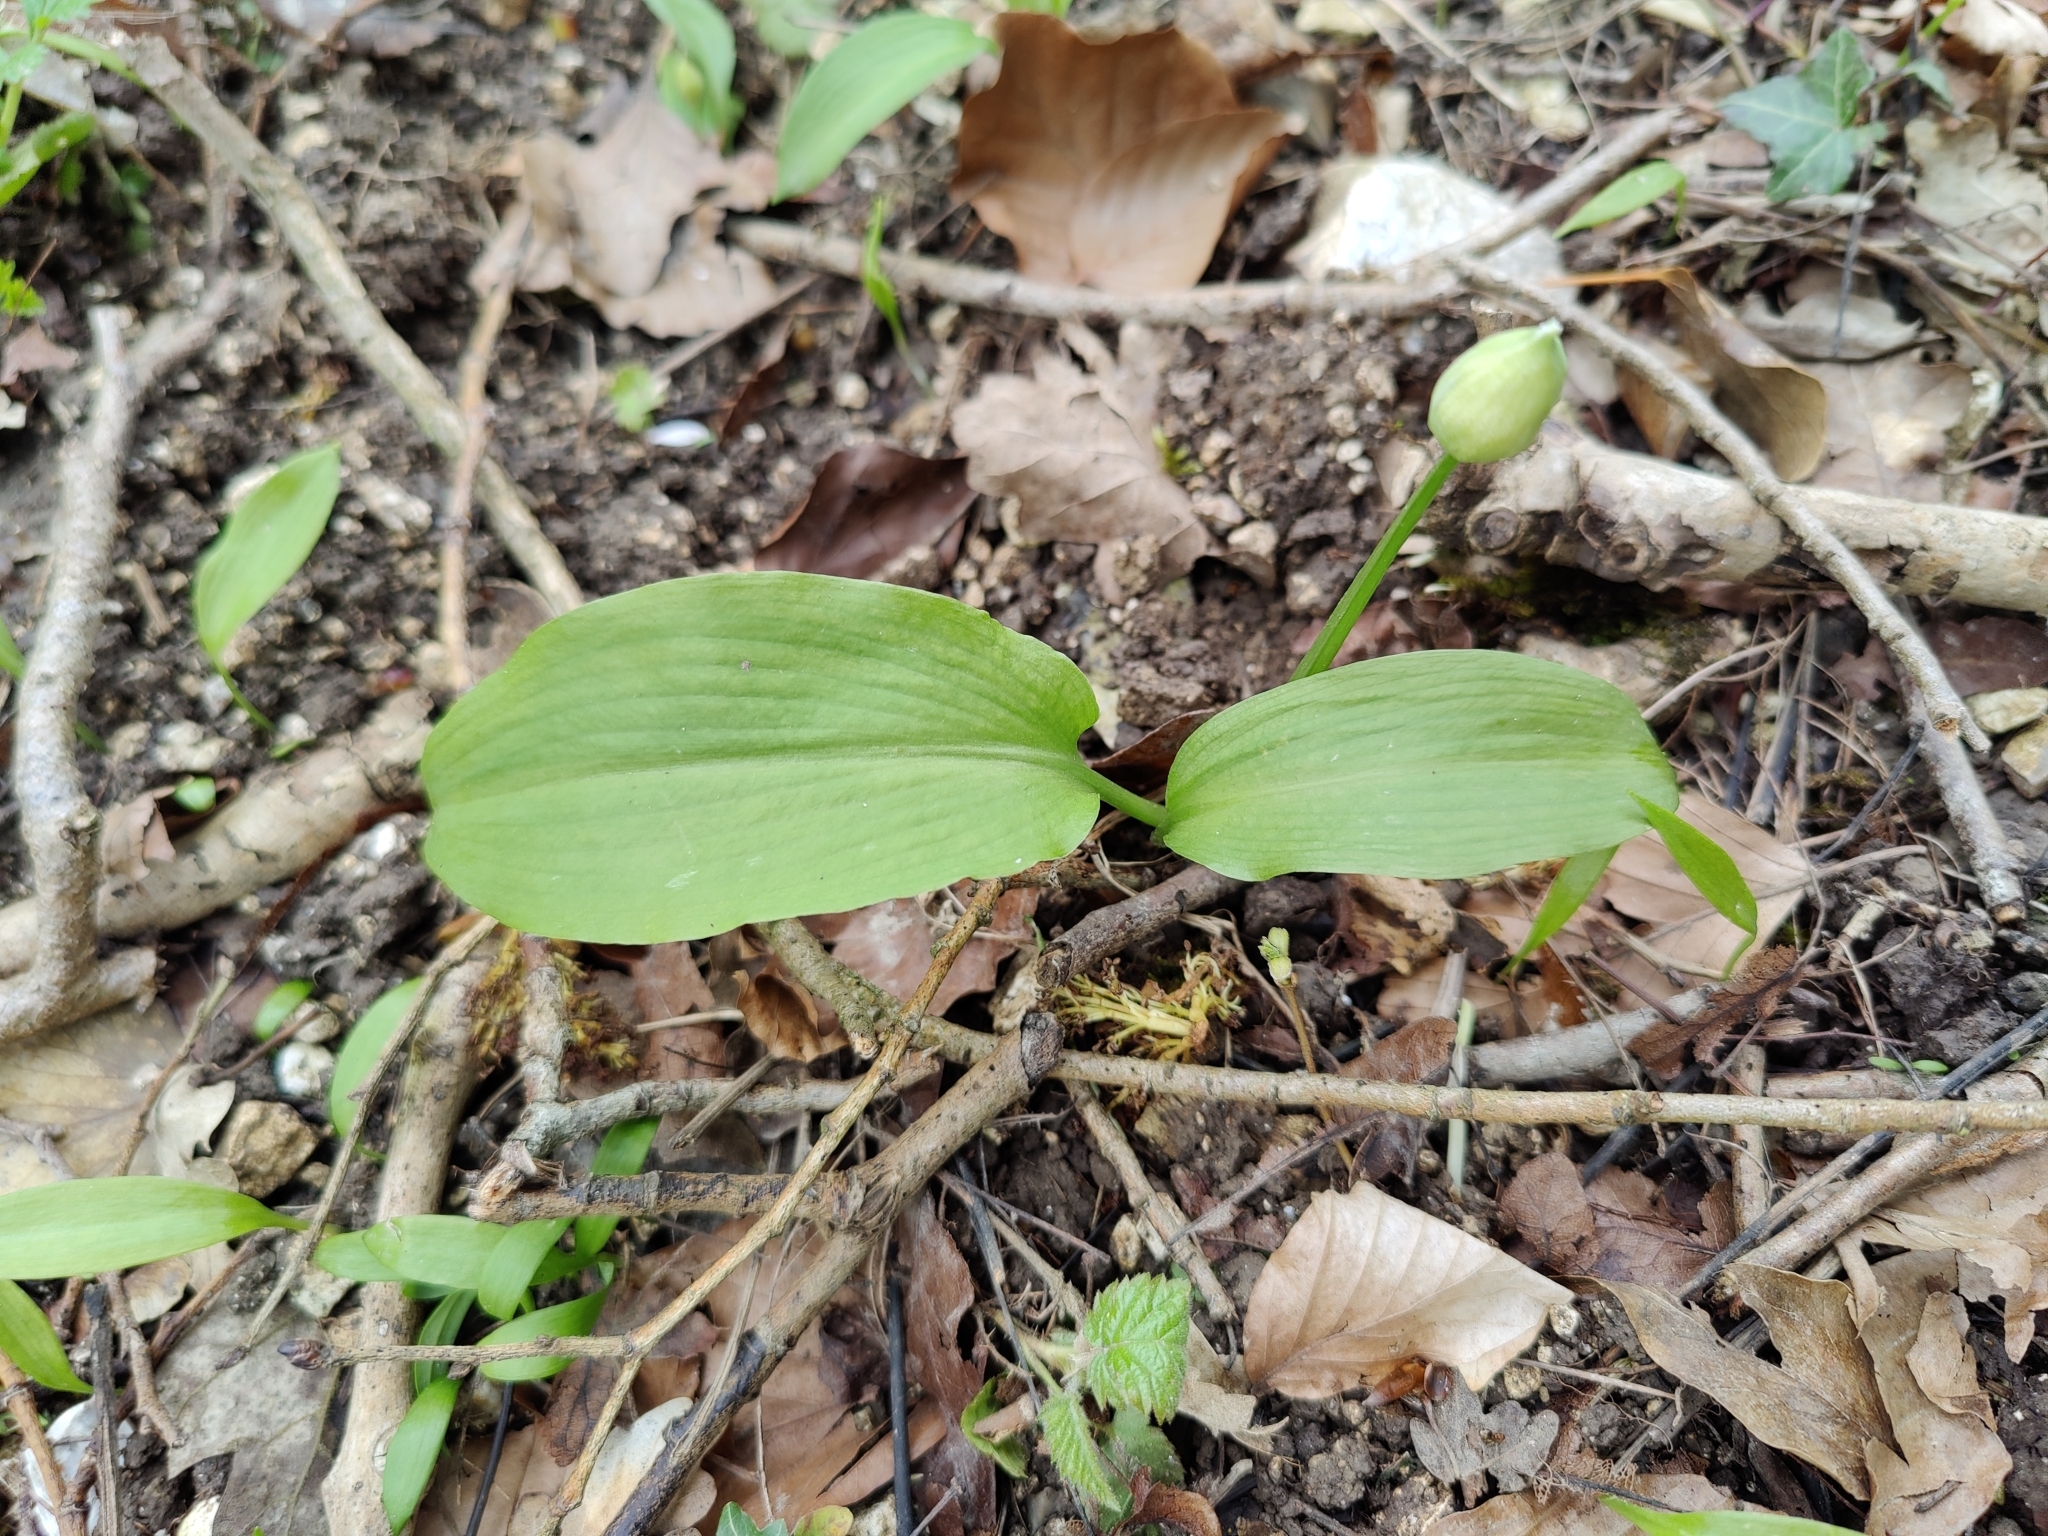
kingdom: Plantae
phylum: Tracheophyta
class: Liliopsida
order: Asparagales
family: Amaryllidaceae
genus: Allium
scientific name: Allium ursinum
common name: Ramsons
